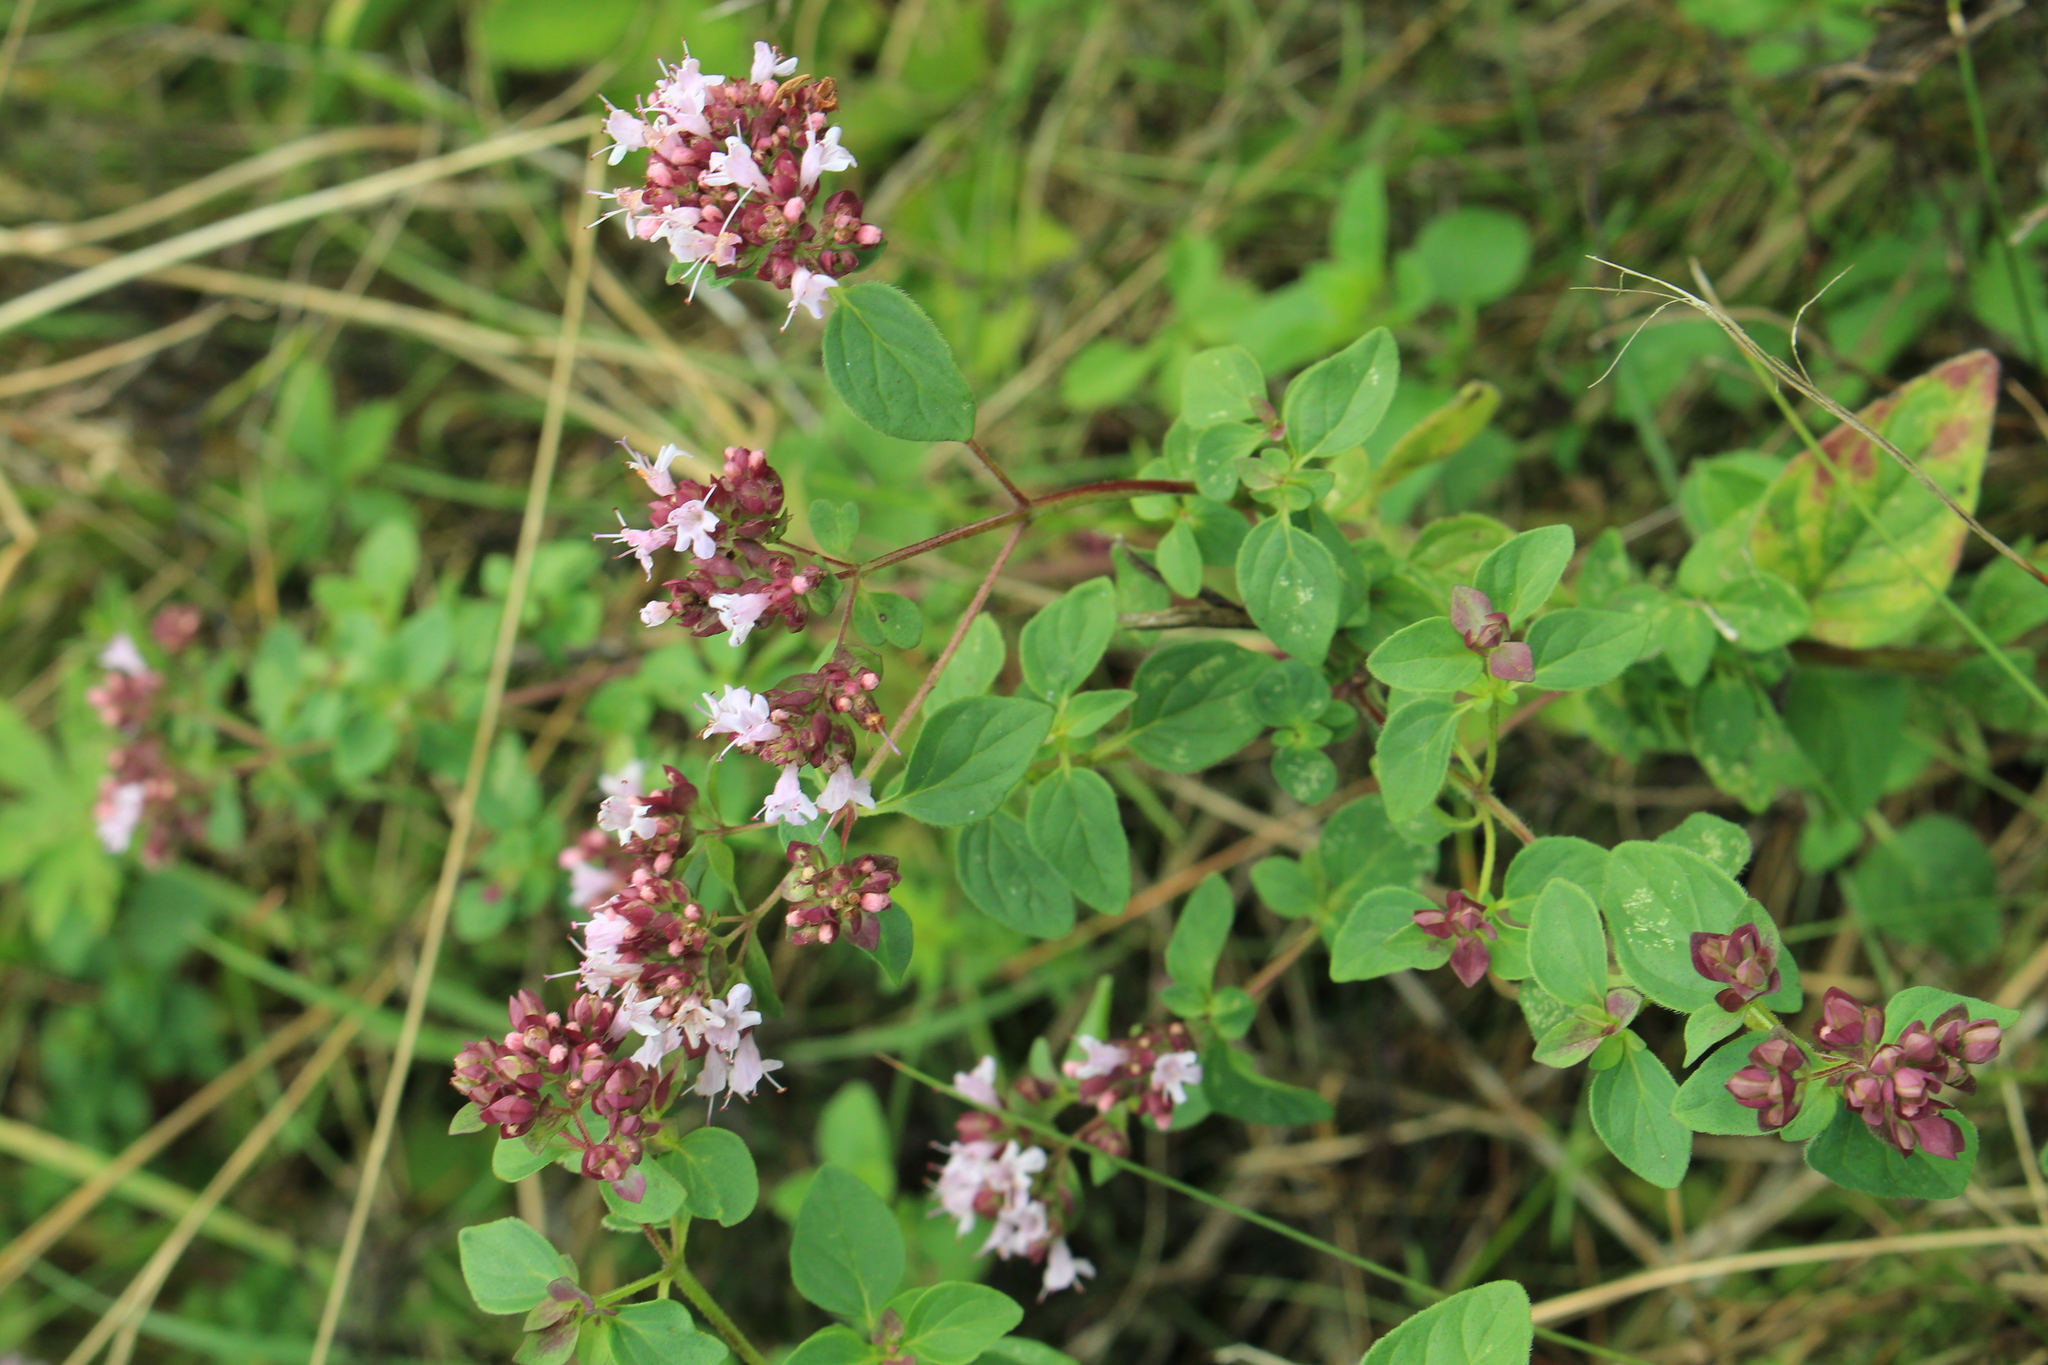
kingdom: Plantae
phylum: Tracheophyta
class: Magnoliopsida
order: Lamiales
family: Lamiaceae
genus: Origanum
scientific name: Origanum vulgare
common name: Wild marjoram
